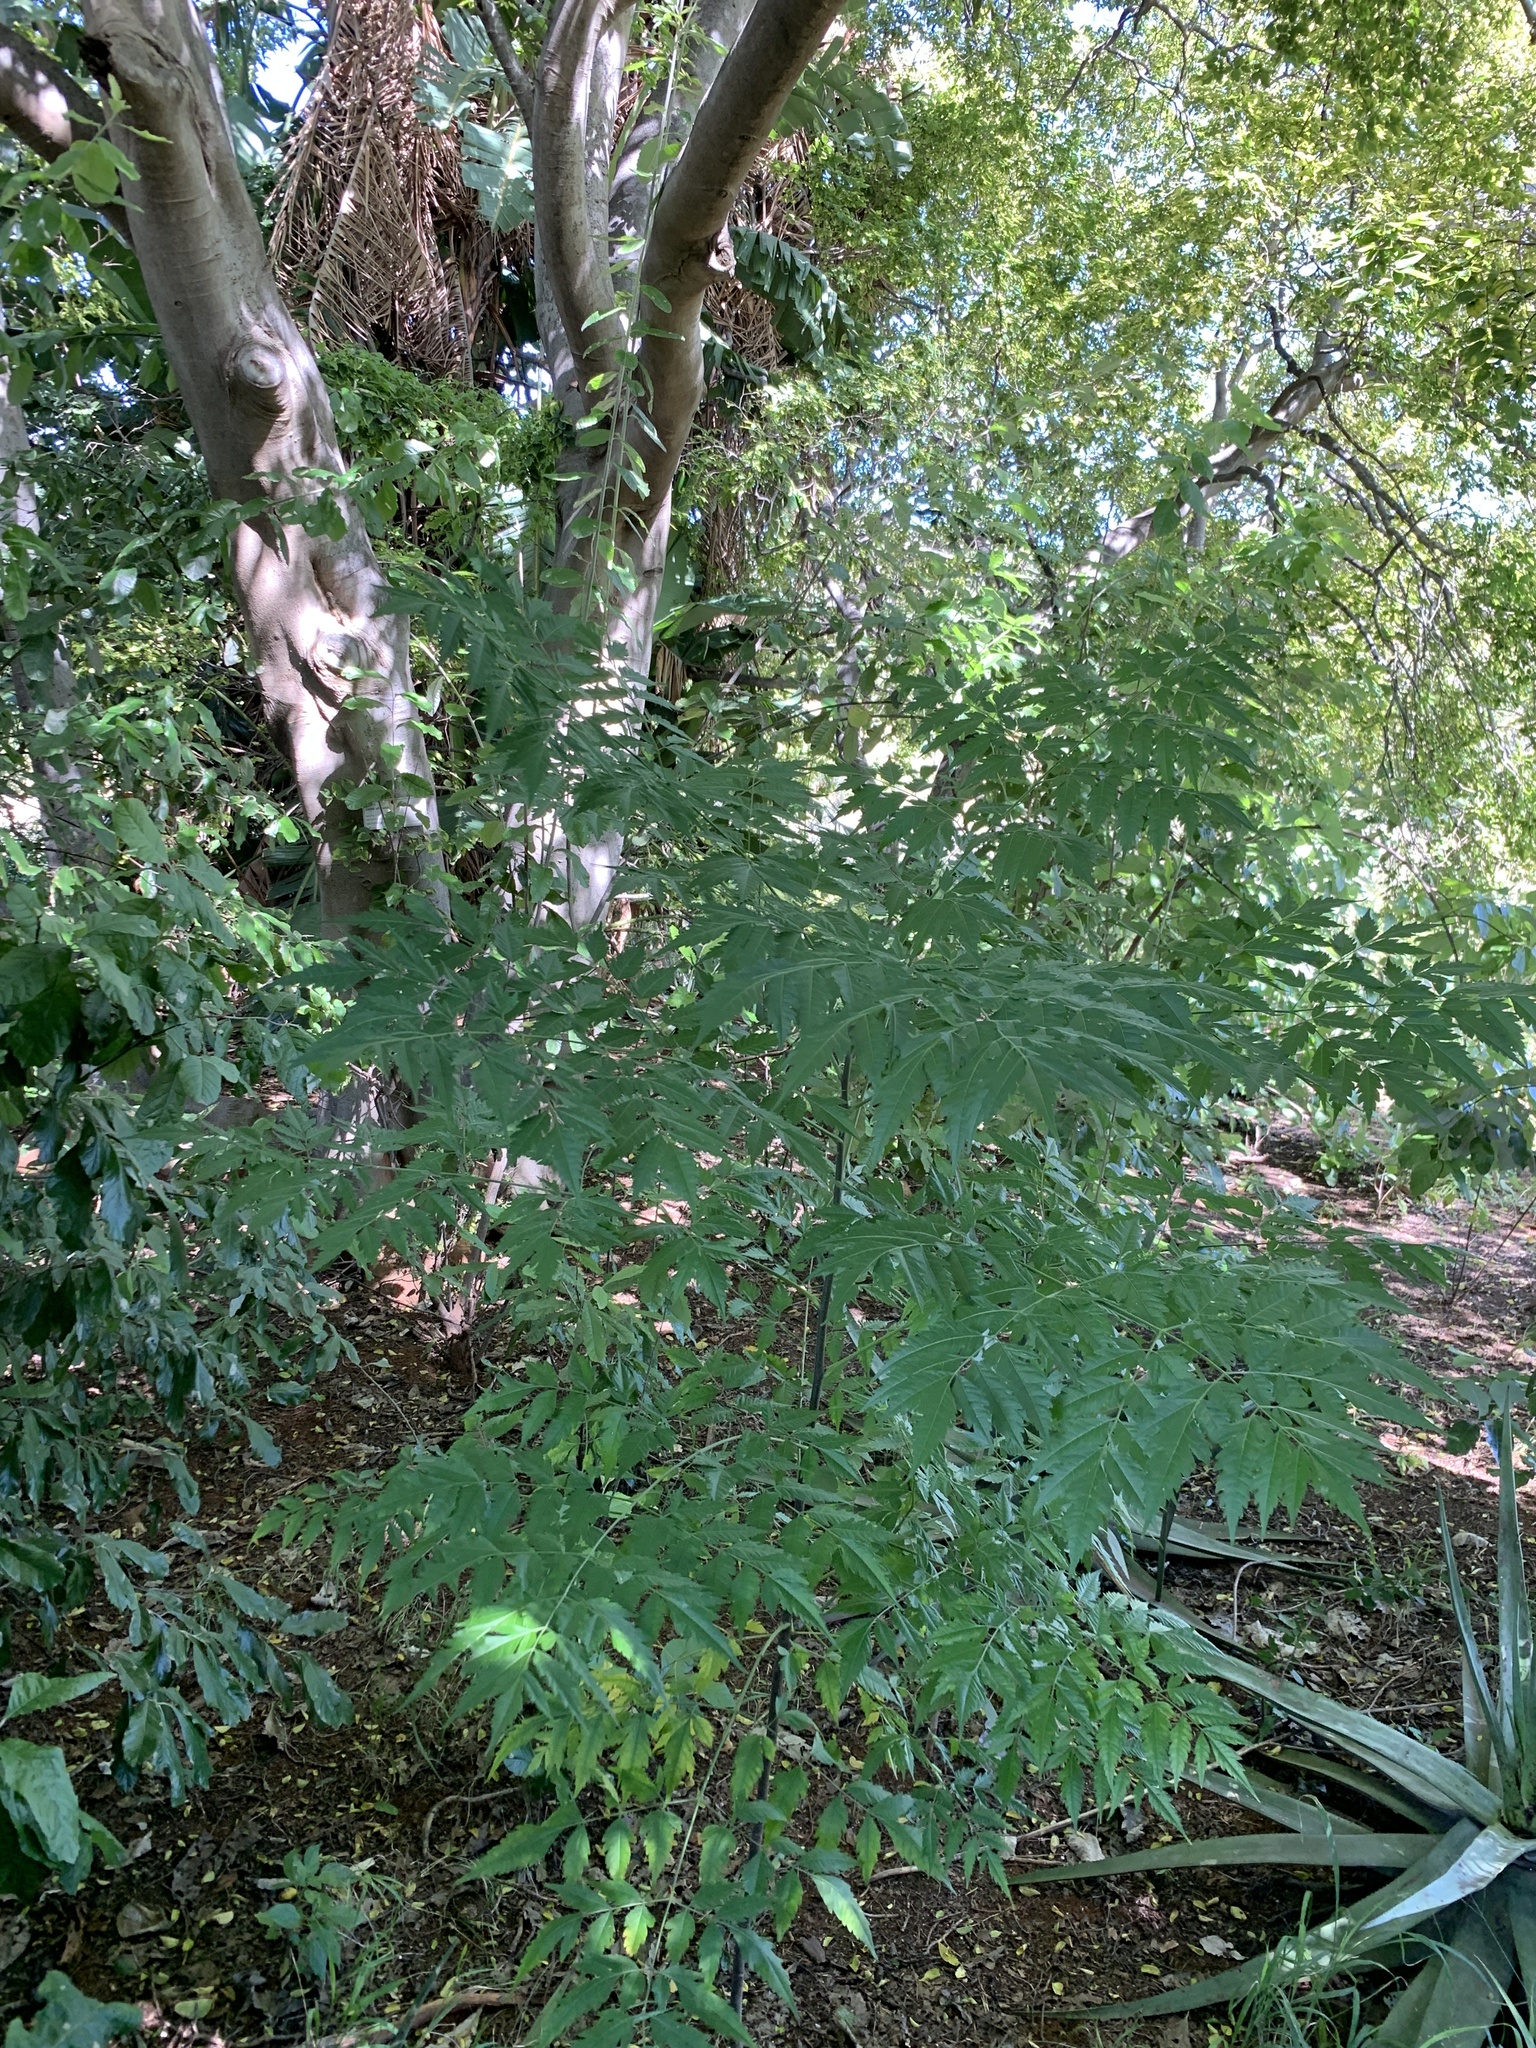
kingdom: Plantae
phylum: Tracheophyta
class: Magnoliopsida
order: Sapindales
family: Meliaceae
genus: Melia
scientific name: Melia azedarach
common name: Chinaberrytree
